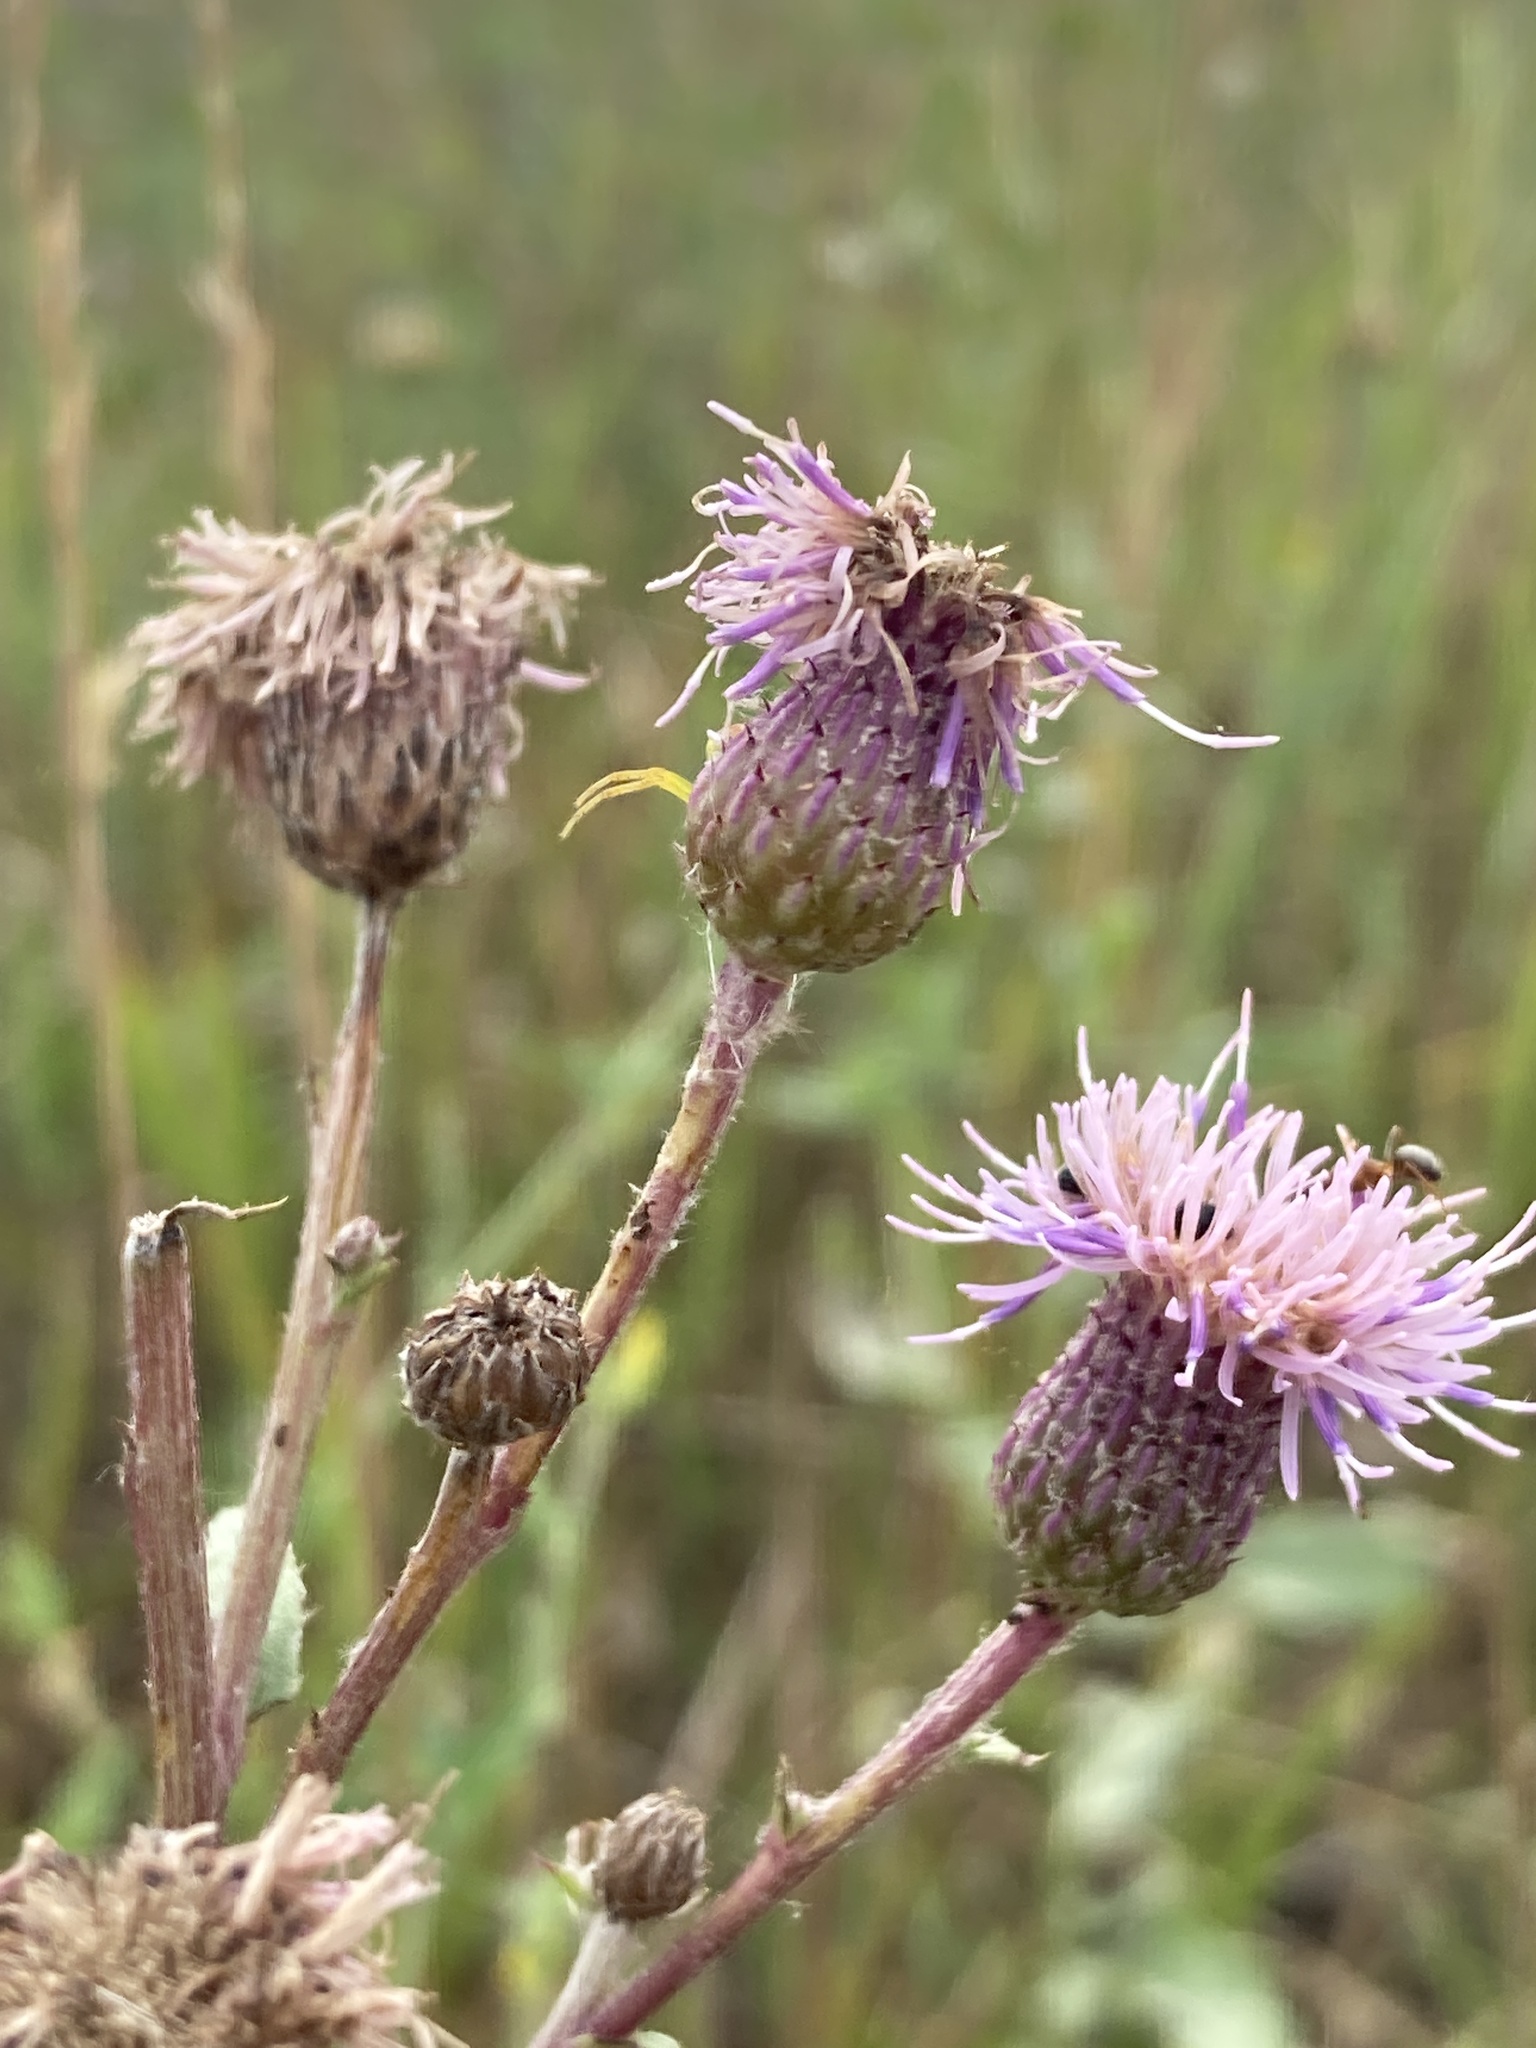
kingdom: Plantae
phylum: Tracheophyta
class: Magnoliopsida
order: Asterales
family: Asteraceae
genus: Cirsium
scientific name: Cirsium arvense
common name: Creeping thistle
